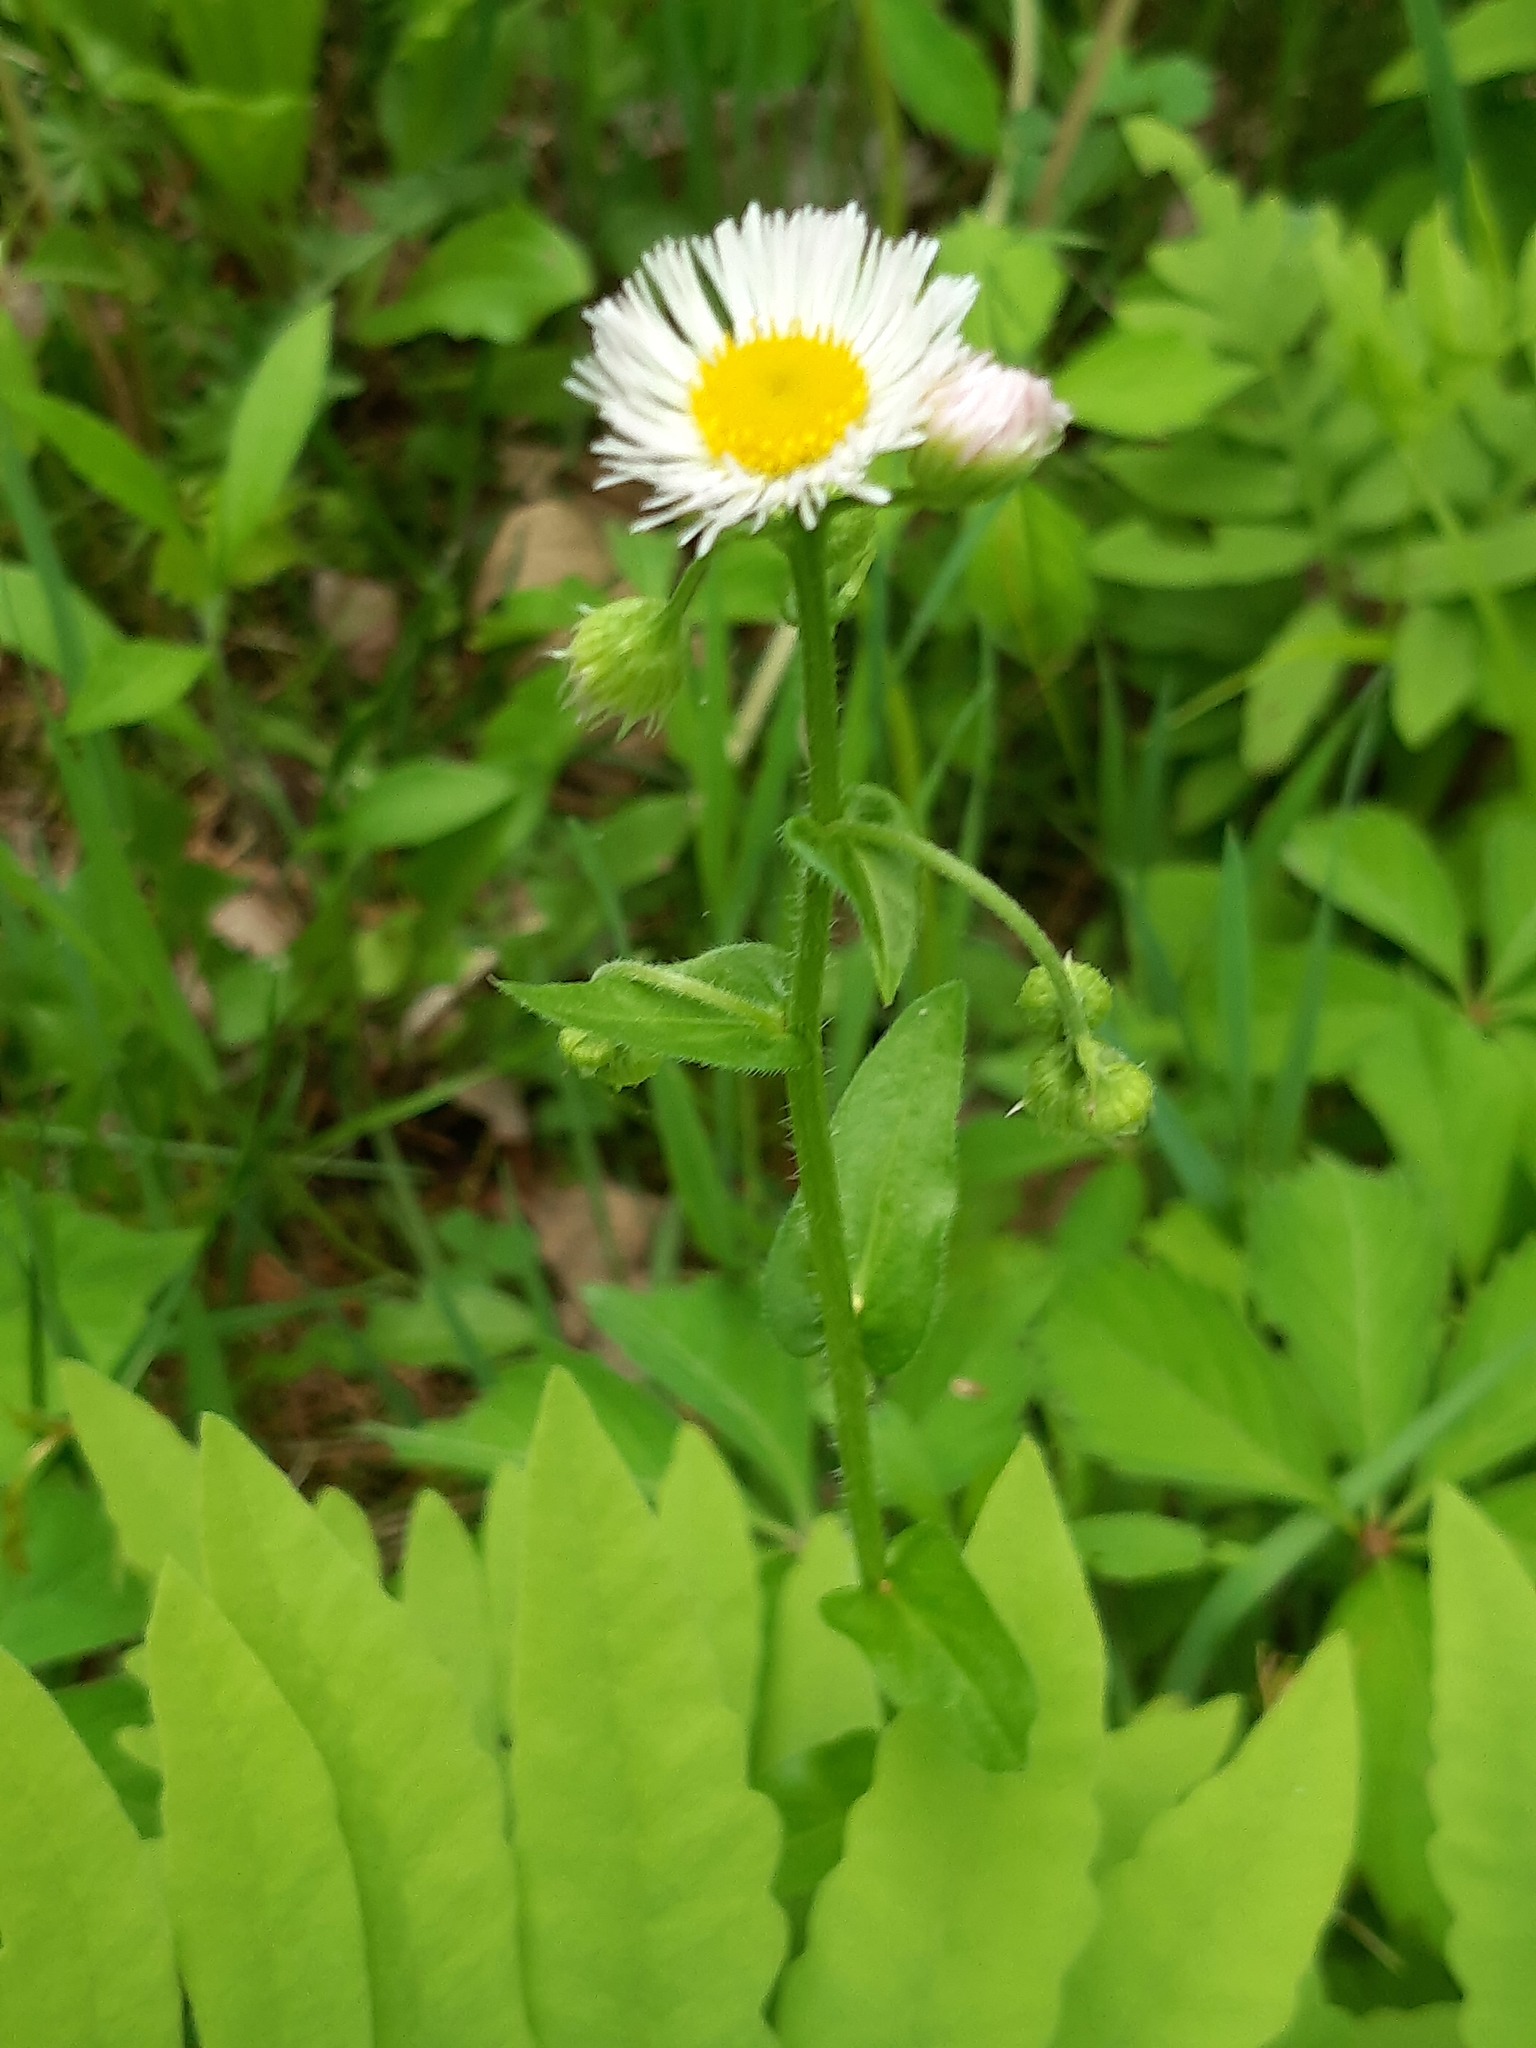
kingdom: Plantae
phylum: Tracheophyta
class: Magnoliopsida
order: Asterales
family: Asteraceae
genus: Erigeron
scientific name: Erigeron philadelphicus
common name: Robin's-plantain
